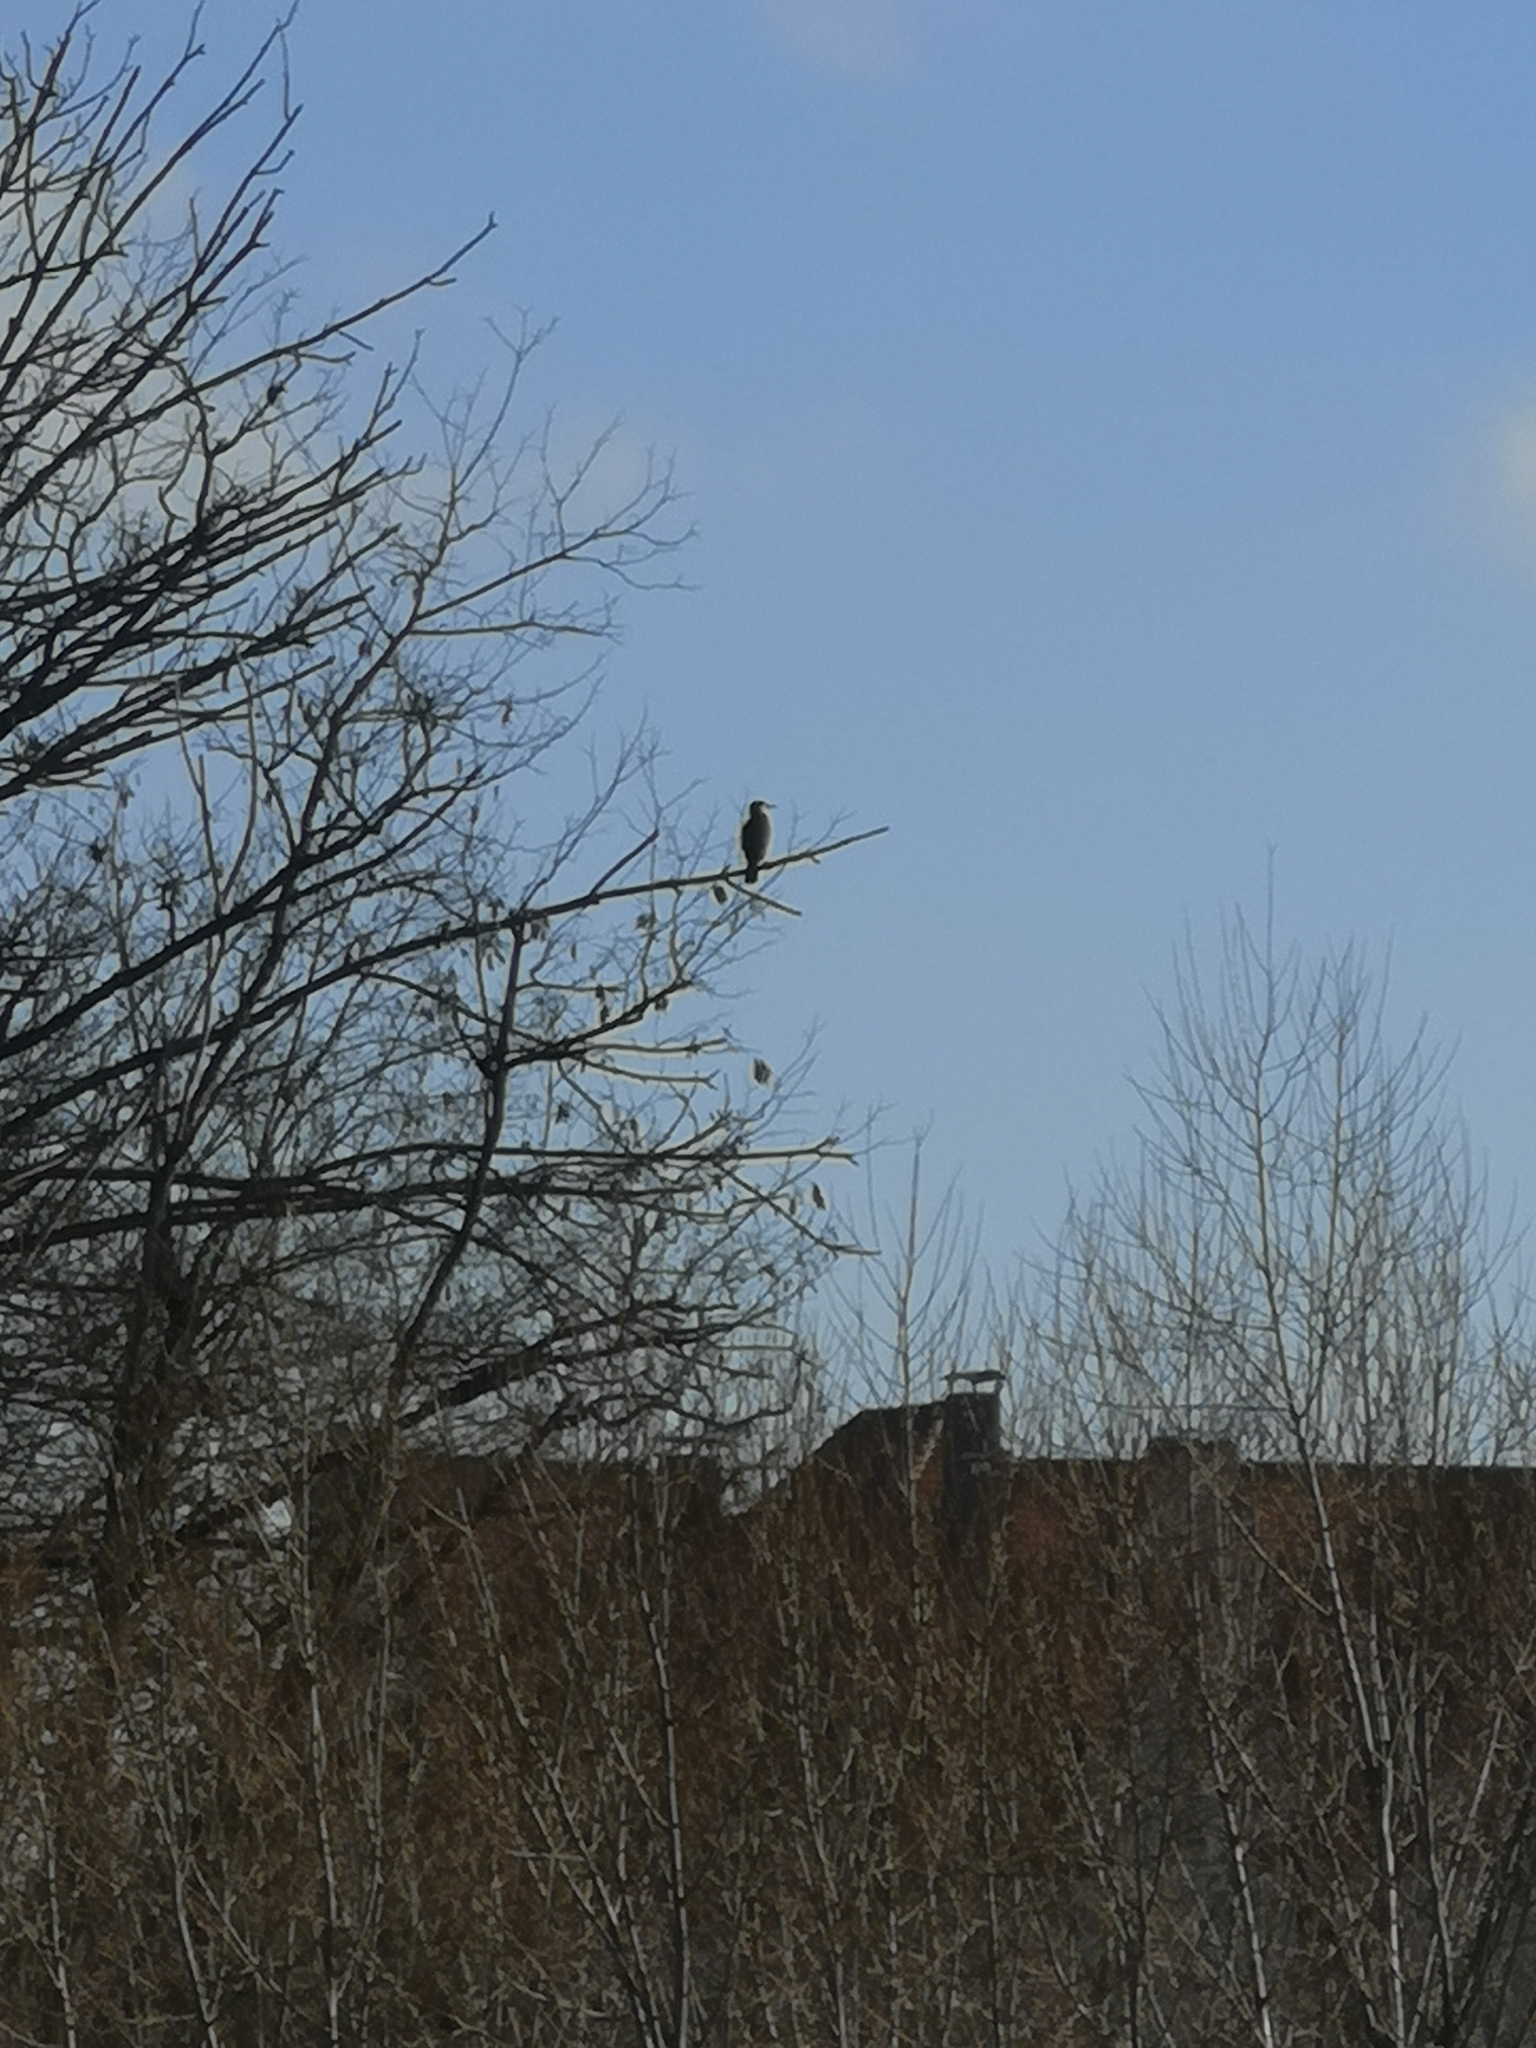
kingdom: Animalia
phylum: Chordata
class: Aves
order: Suliformes
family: Phalacrocoracidae
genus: Phalacrocorax
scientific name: Phalacrocorax carbo
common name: Great cormorant
